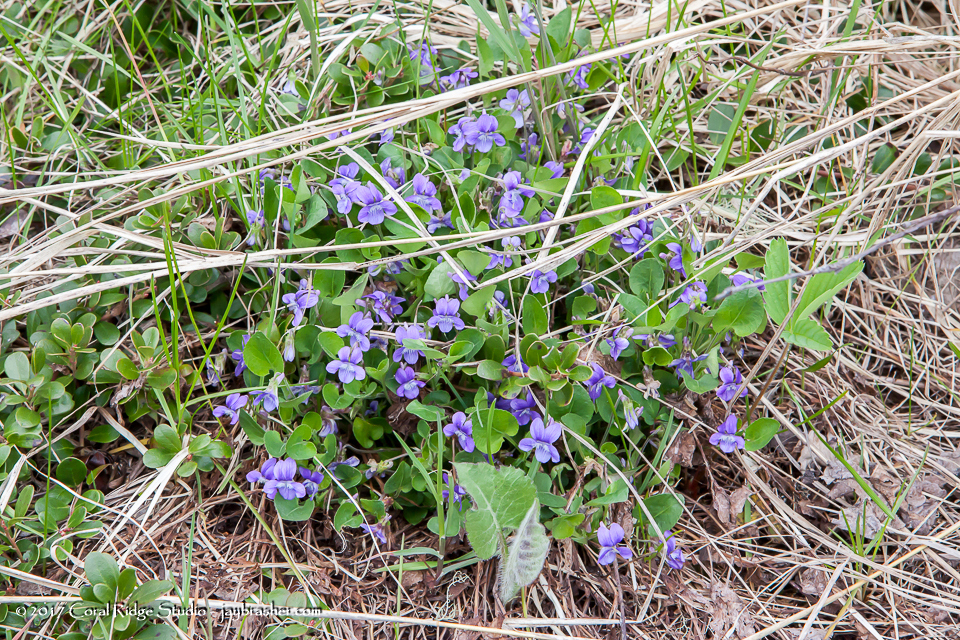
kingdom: Plantae
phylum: Tracheophyta
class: Magnoliopsida
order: Malpighiales
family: Violaceae
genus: Viola
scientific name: Viola adunca
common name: Sand violet
